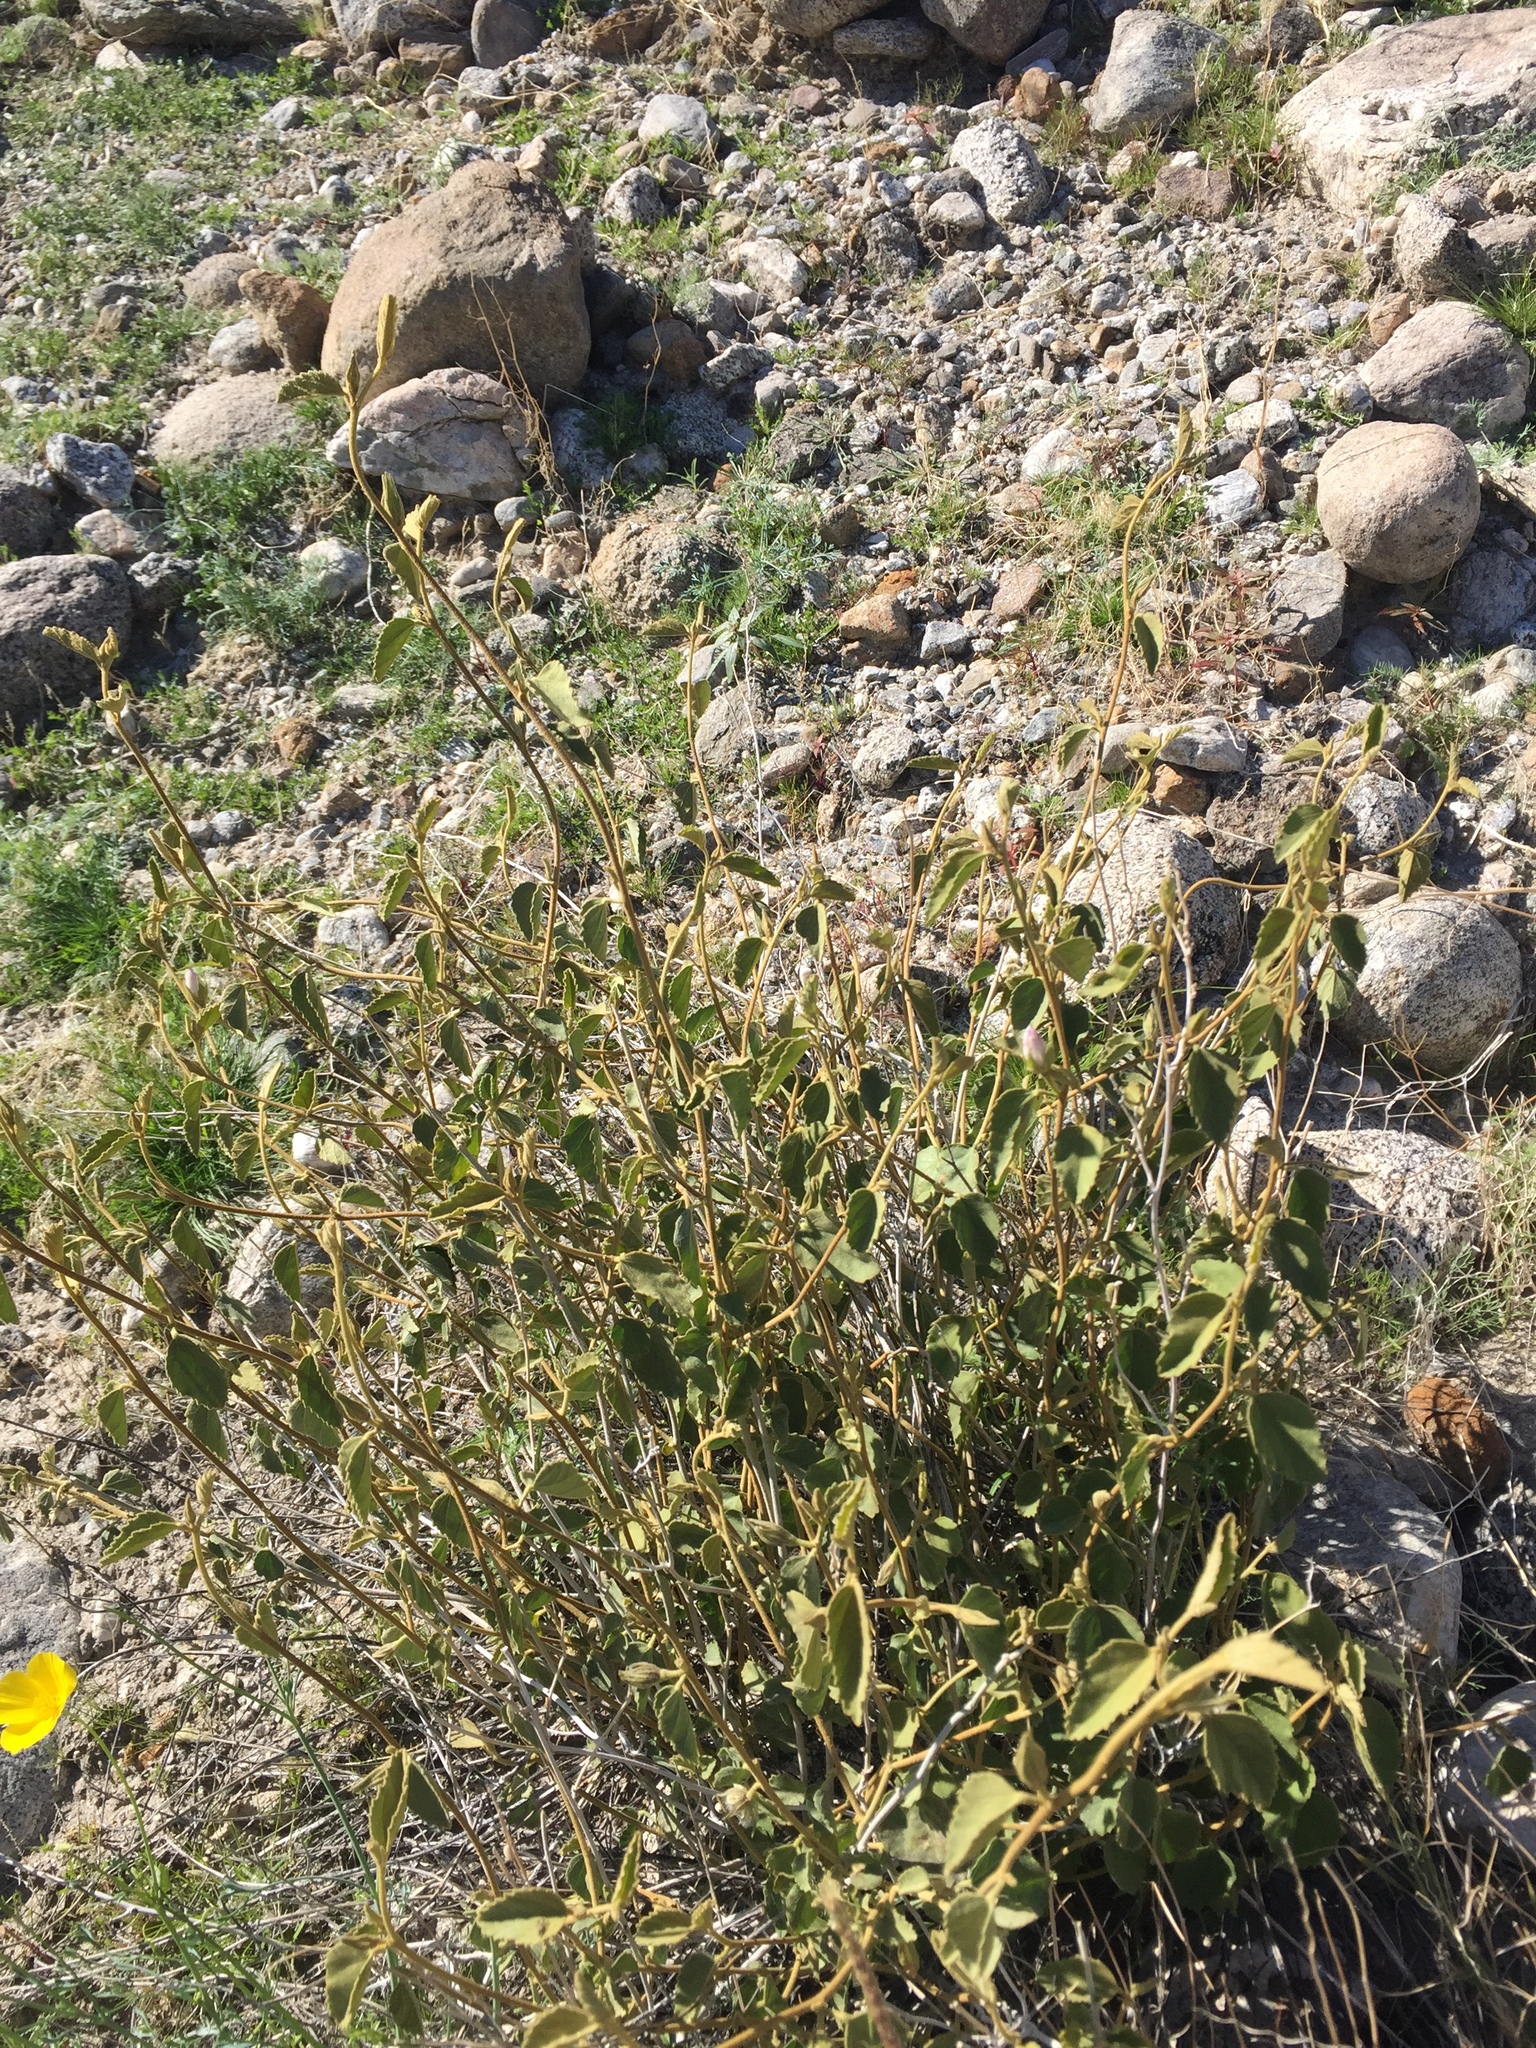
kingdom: Plantae
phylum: Tracheophyta
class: Magnoliopsida
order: Malvales
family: Malvaceae
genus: Hibiscus
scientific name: Hibiscus denudatus
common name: Paleface
